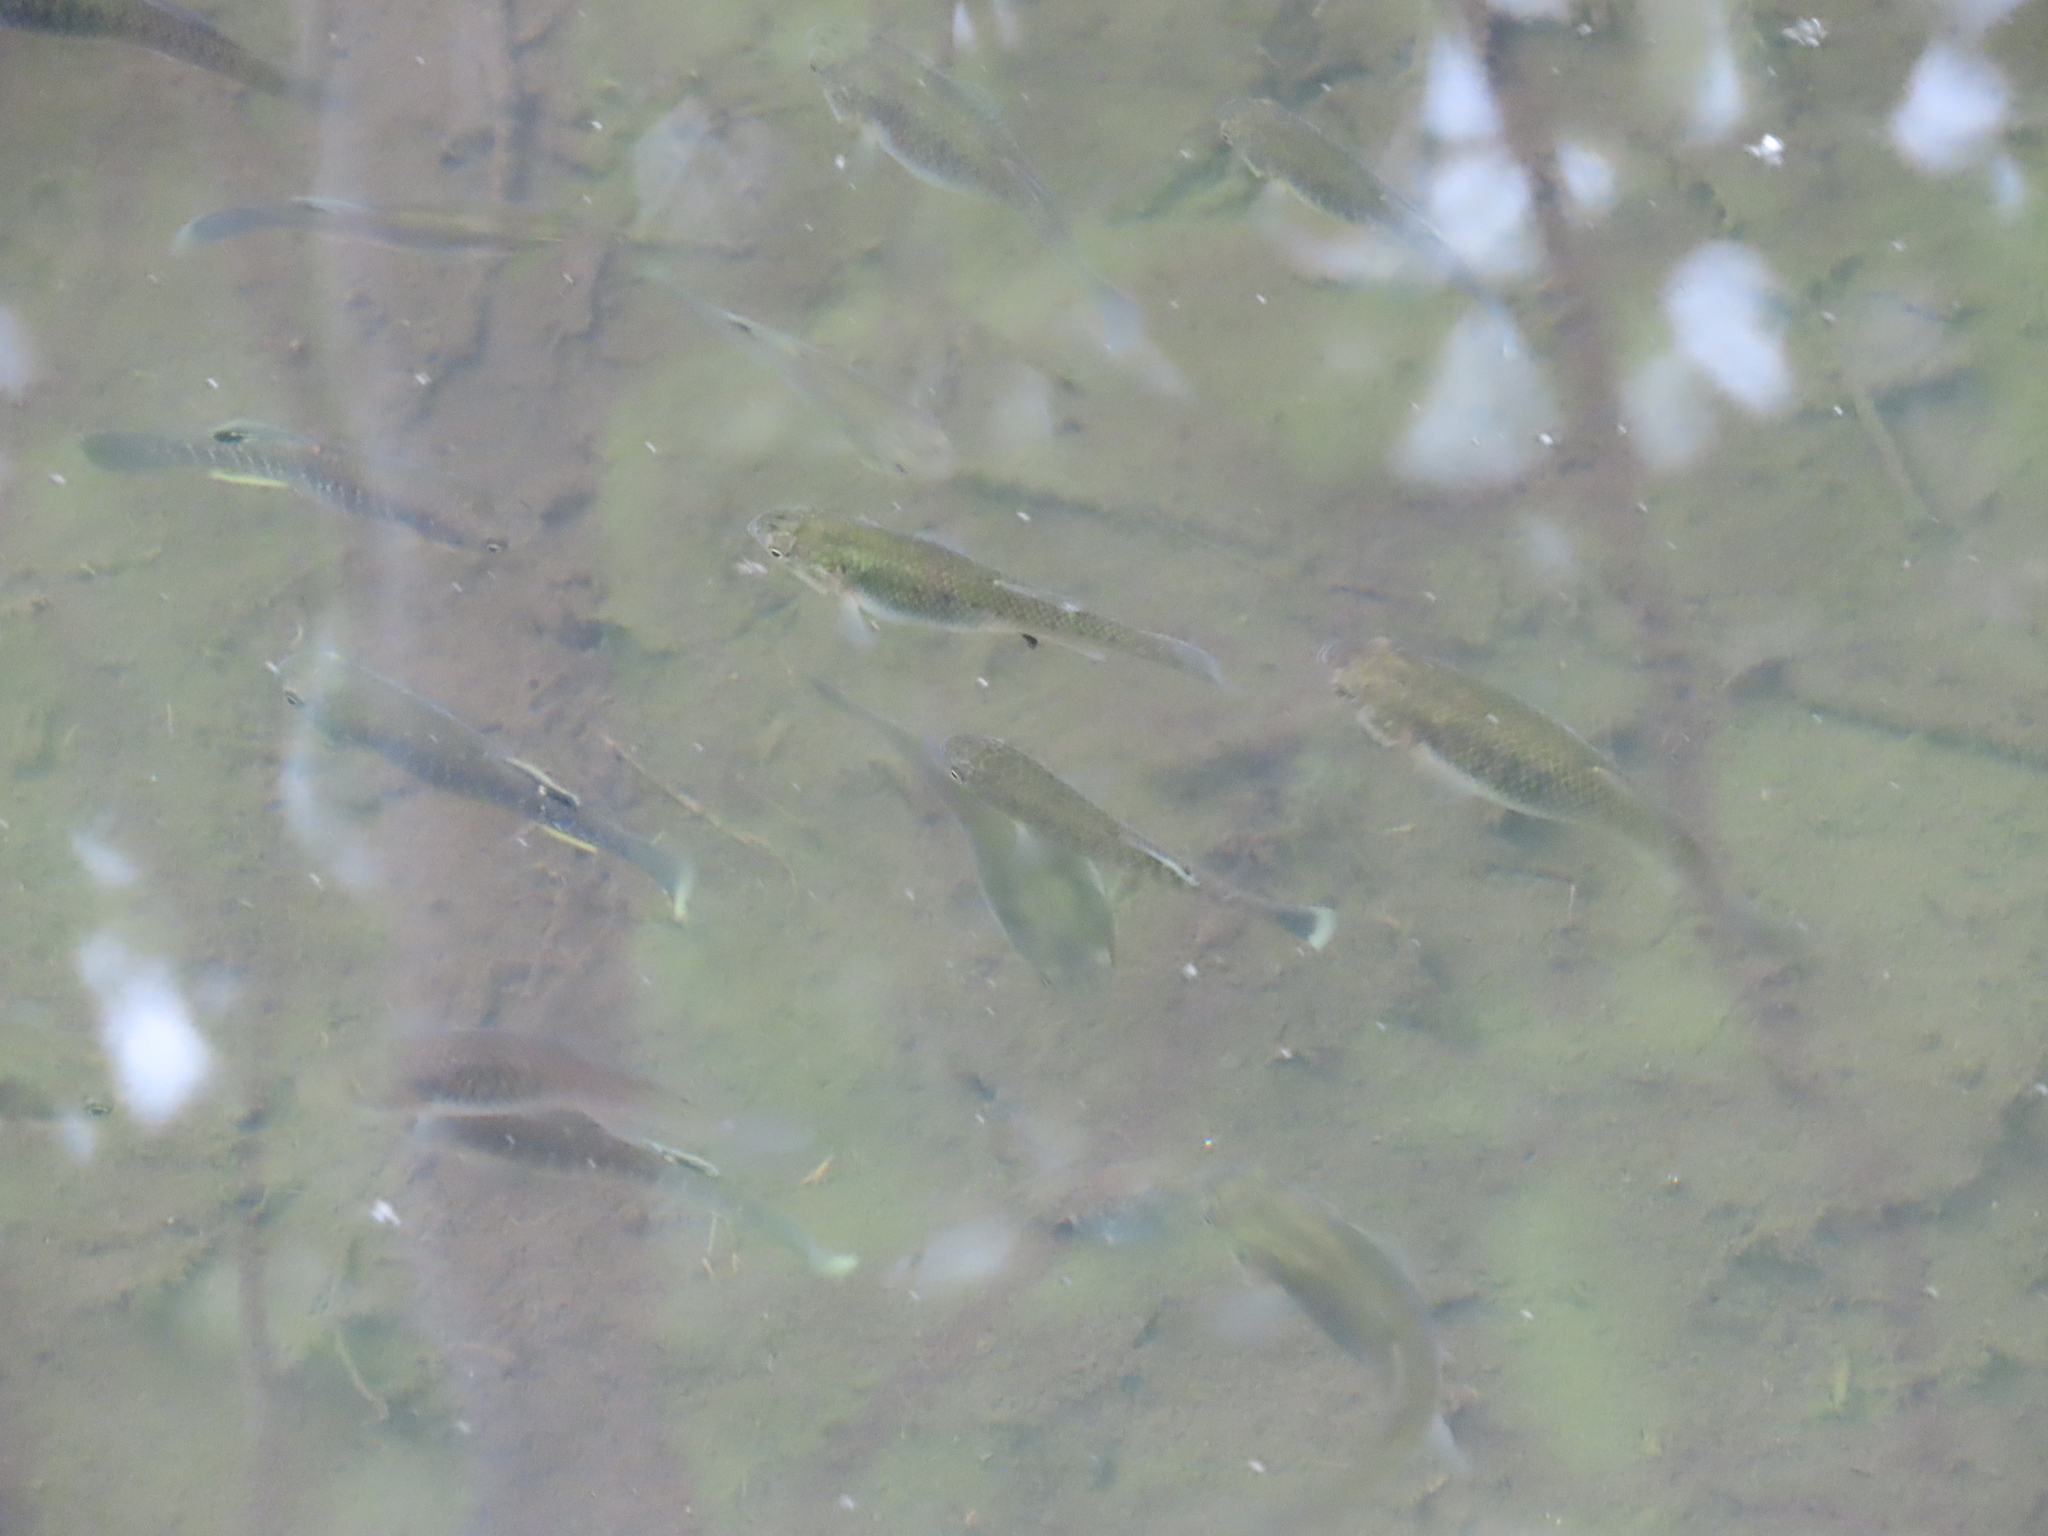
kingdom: Animalia
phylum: Chordata
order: Cyprinodontiformes
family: Fundulidae
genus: Fundulus
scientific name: Fundulus heteroclitus
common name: Mummichog
